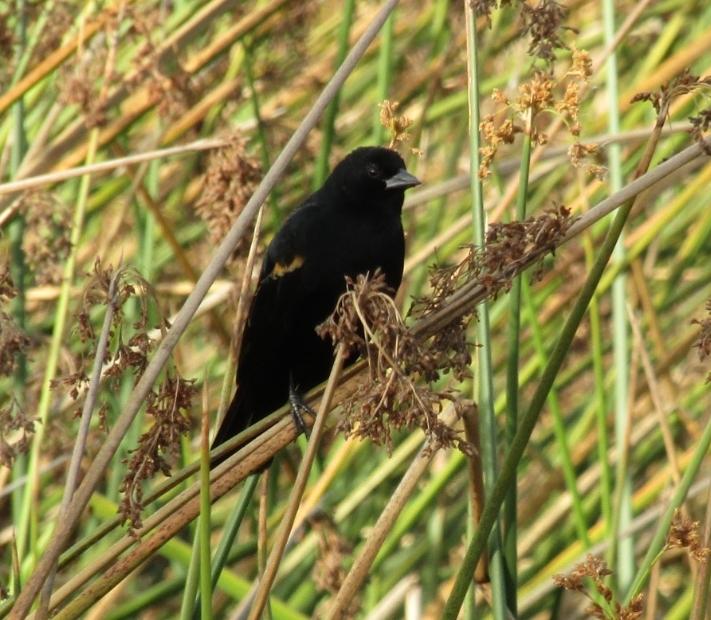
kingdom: Animalia
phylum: Chordata
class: Aves
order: Passeriformes
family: Icteridae
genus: Agelaius
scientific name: Agelaius phoeniceus
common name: Red-winged blackbird
